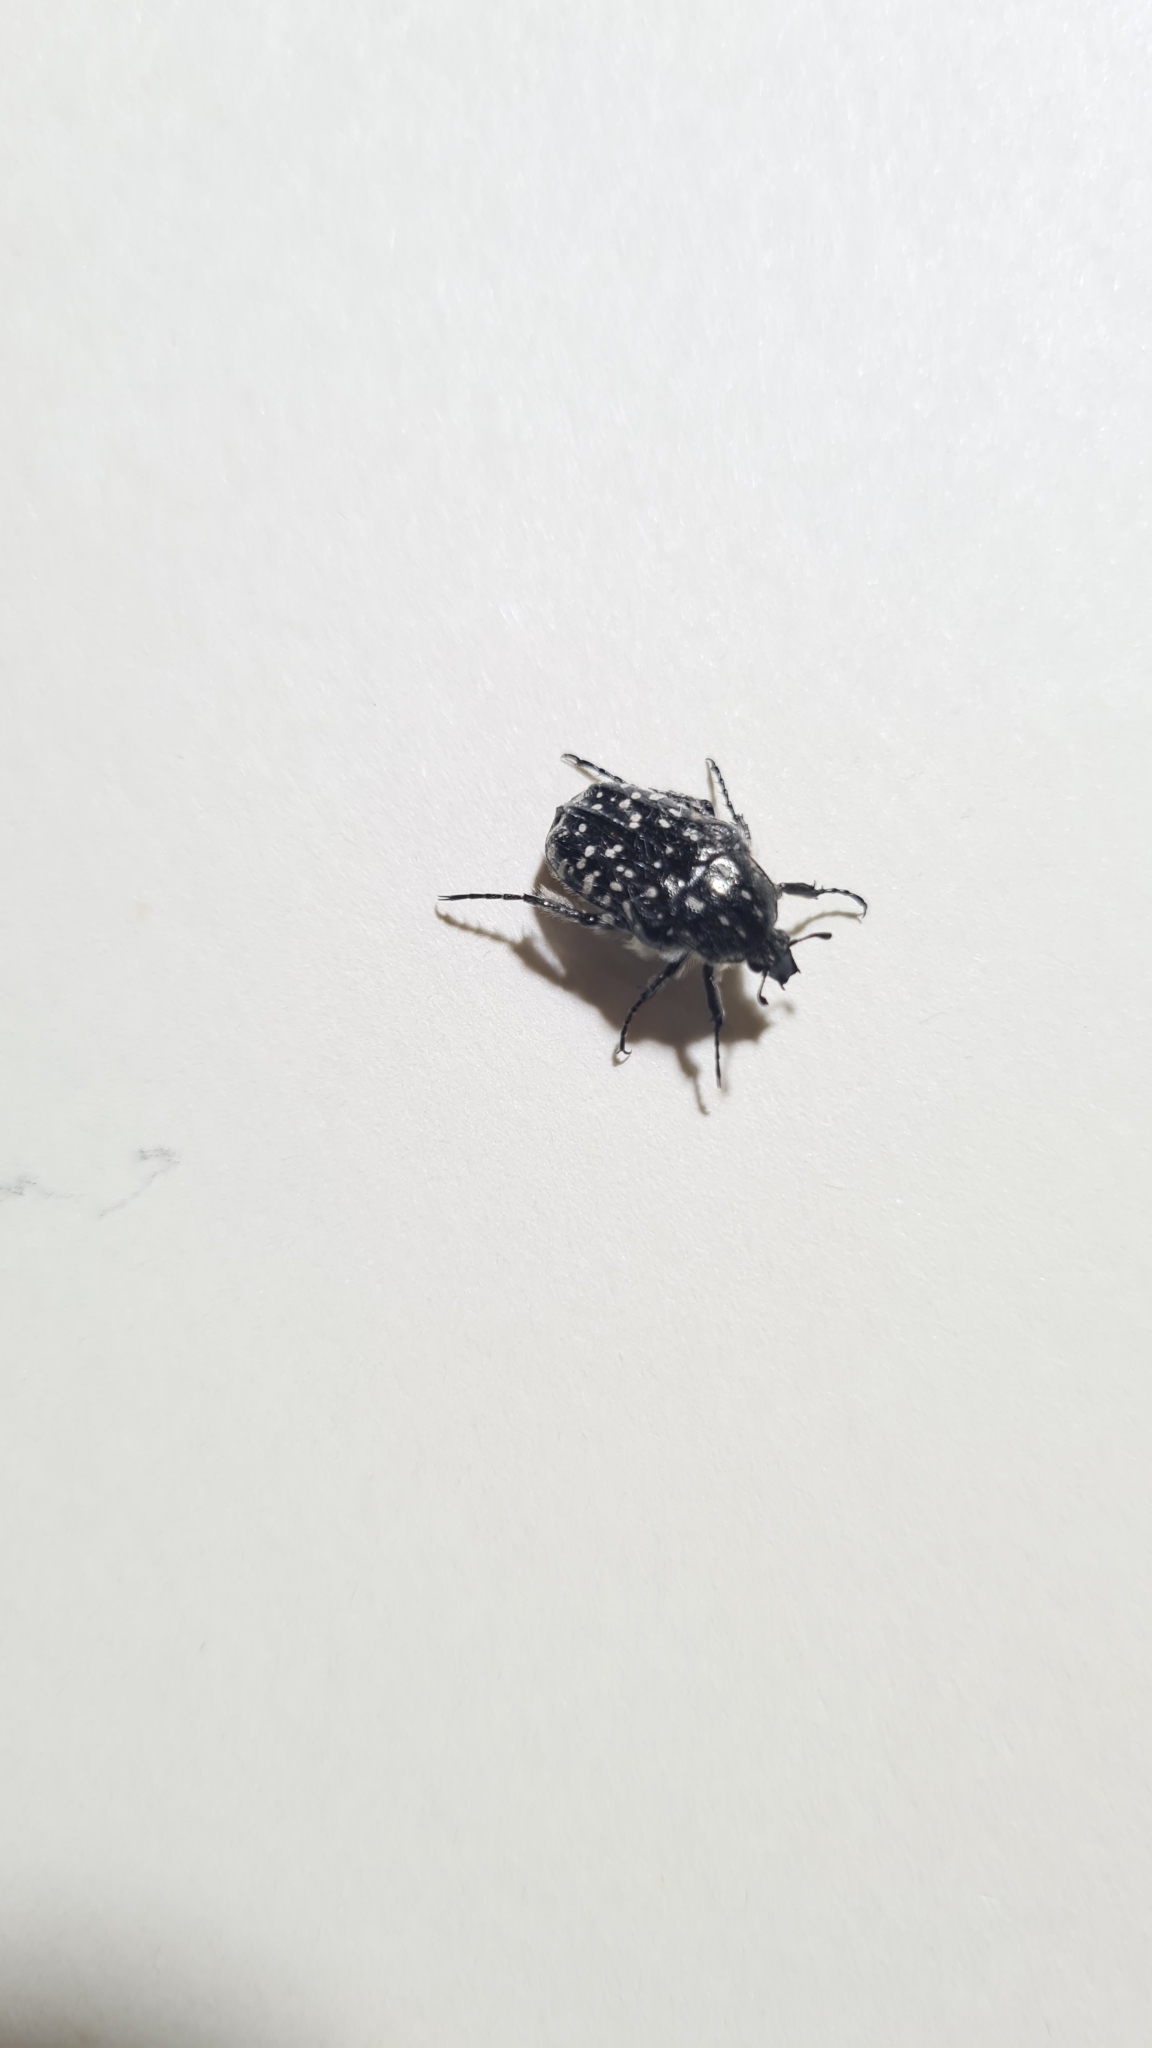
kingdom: Animalia
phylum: Arthropoda
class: Insecta
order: Coleoptera
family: Scarabaeidae
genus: Oxythyrea
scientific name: Oxythyrea funesta
